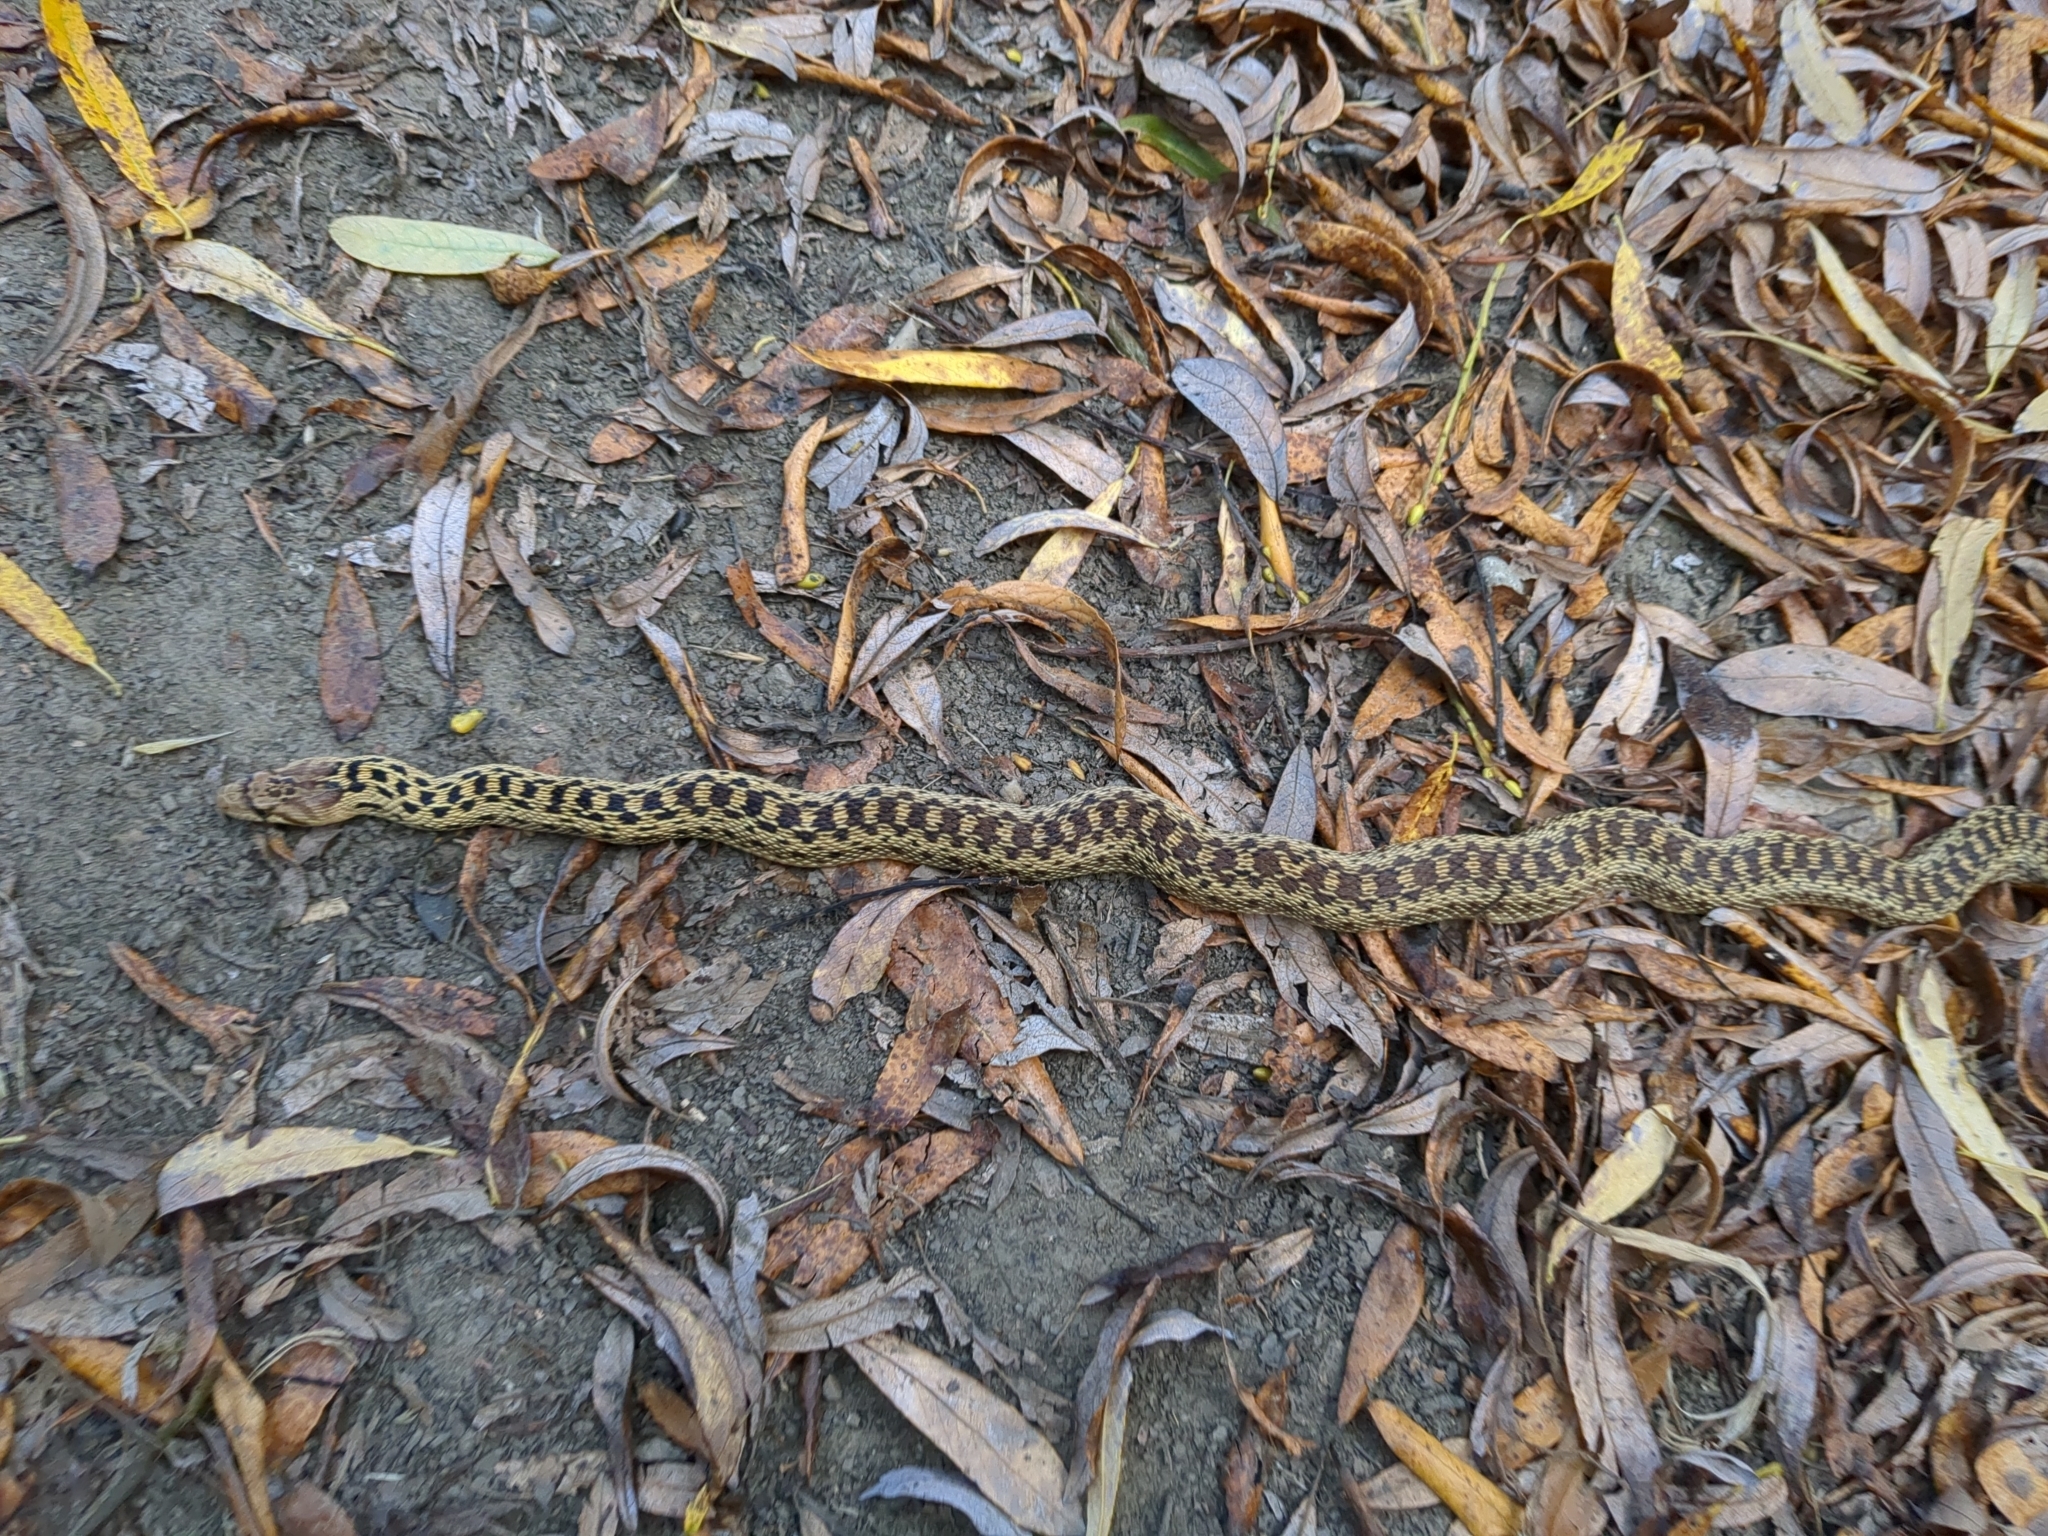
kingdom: Animalia
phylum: Chordata
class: Squamata
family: Colubridae
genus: Pituophis
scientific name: Pituophis catenifer
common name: Gopher snake
